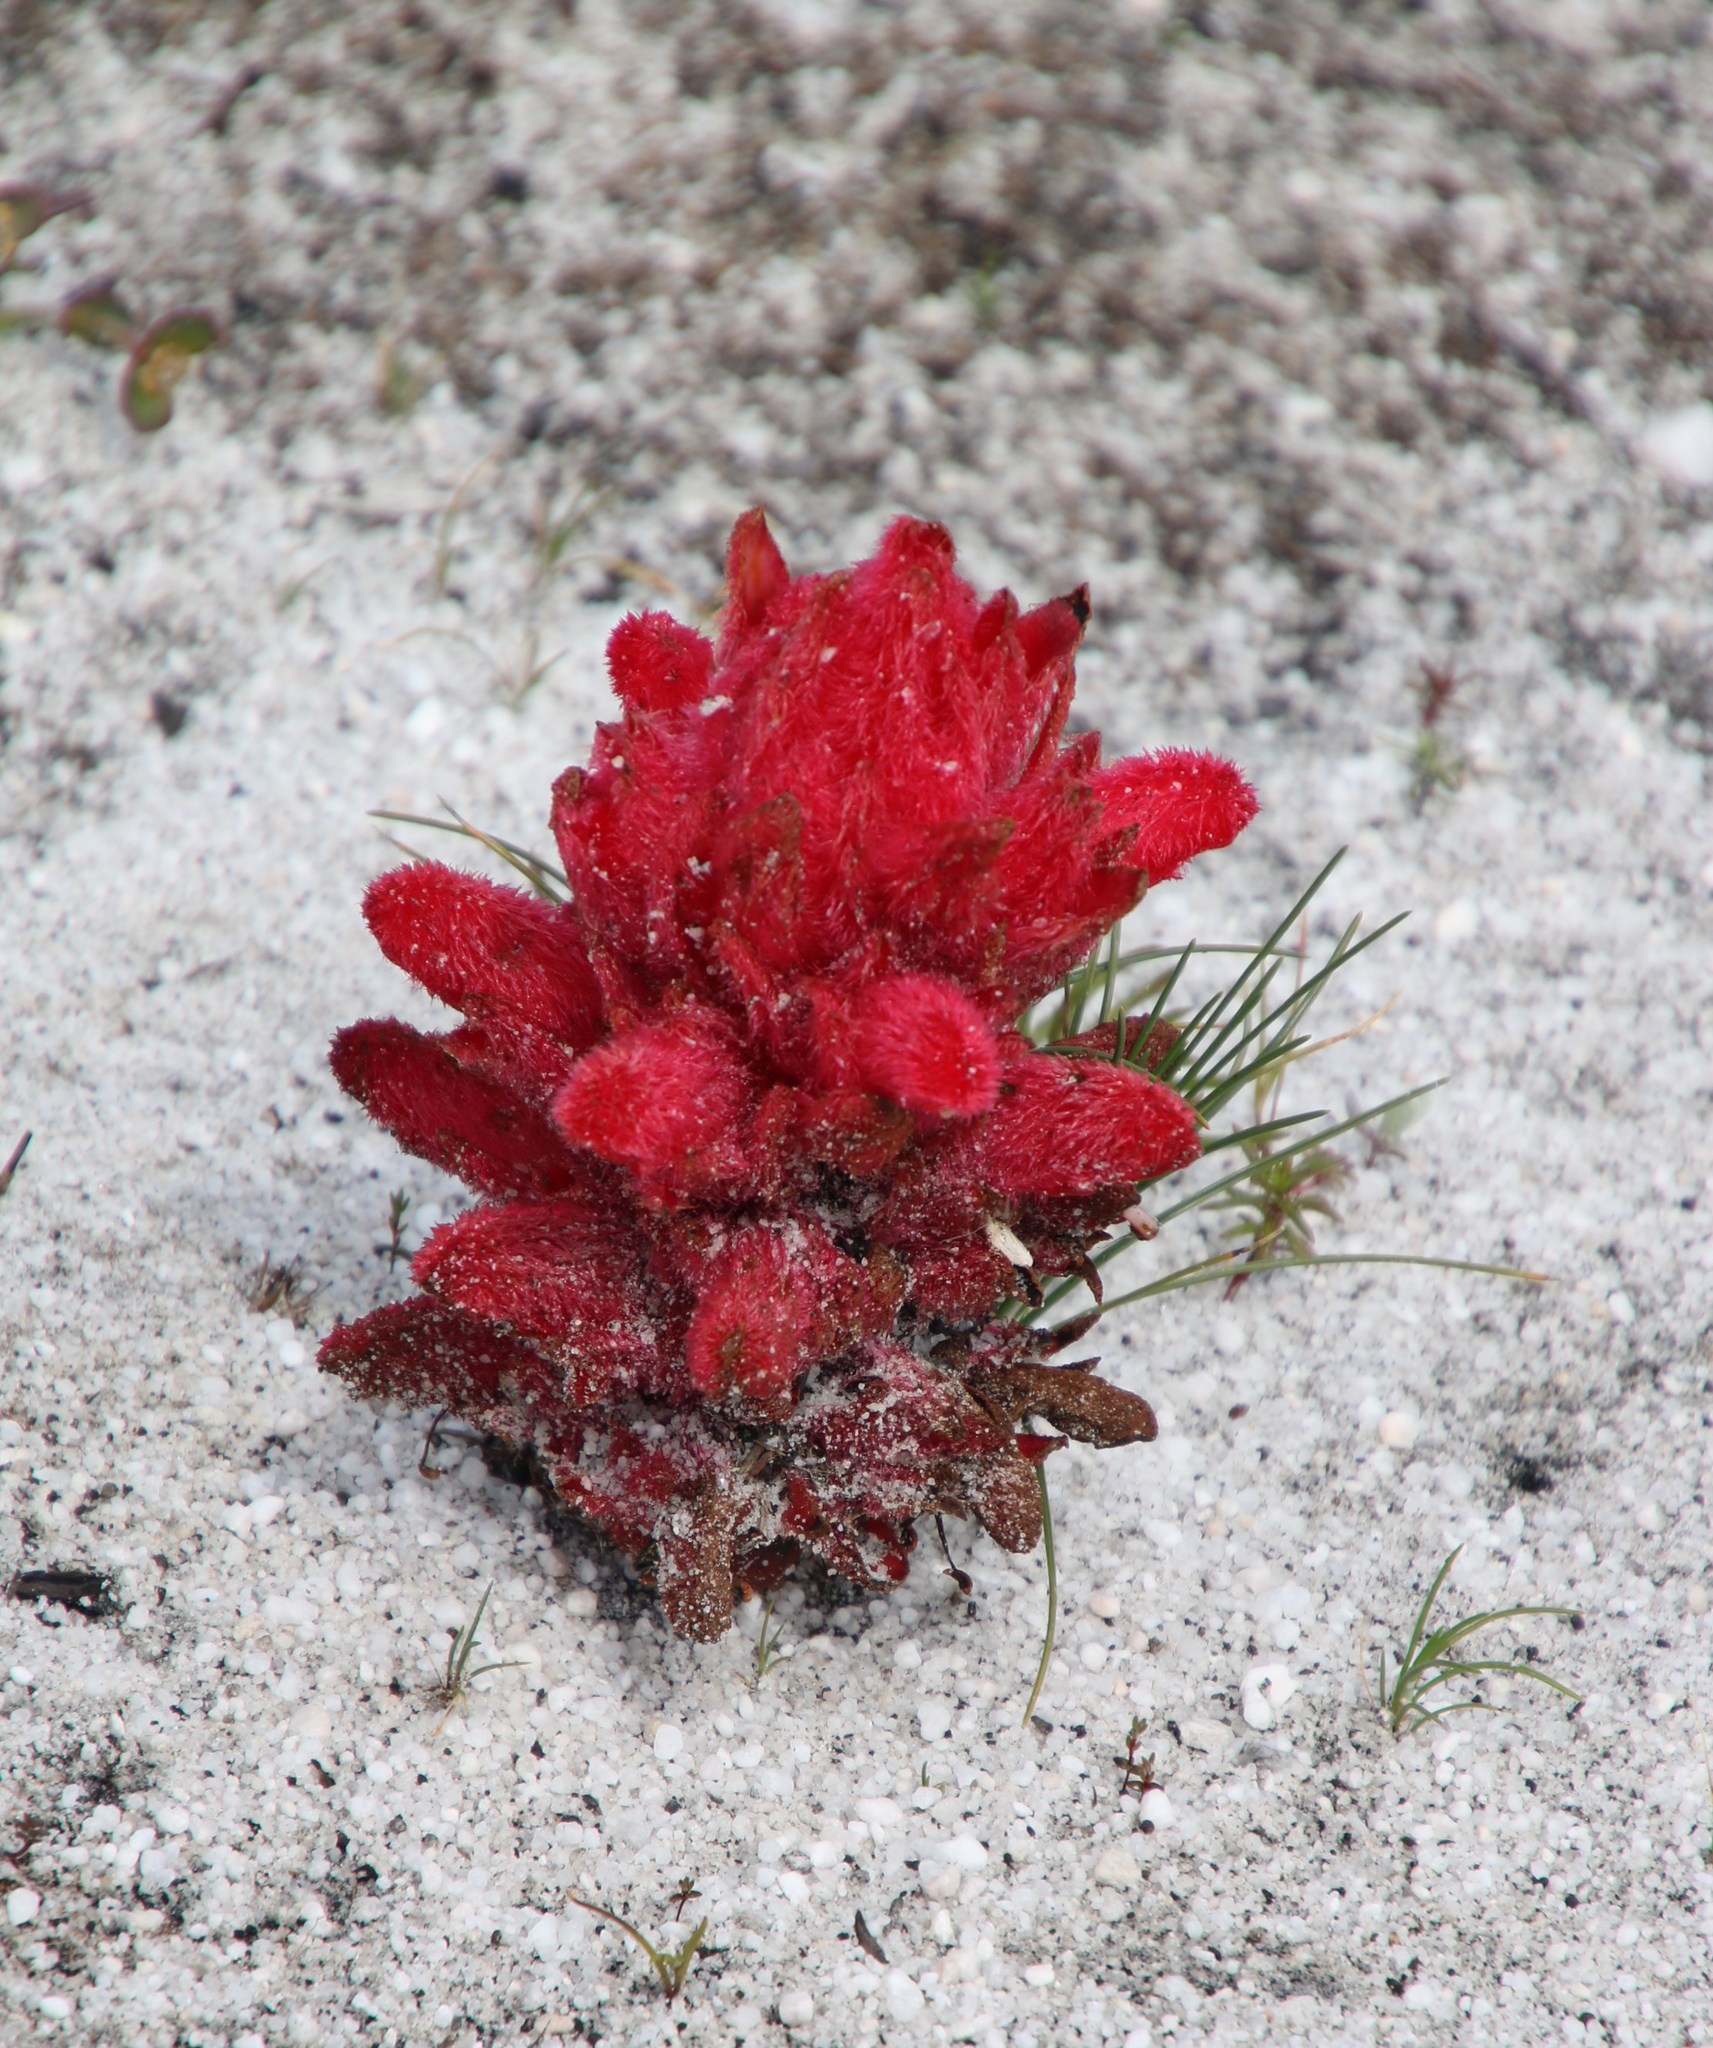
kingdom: Plantae
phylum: Tracheophyta
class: Magnoliopsida
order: Lamiales
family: Orobanchaceae
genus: Hyobanche
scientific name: Hyobanche sanguinea
